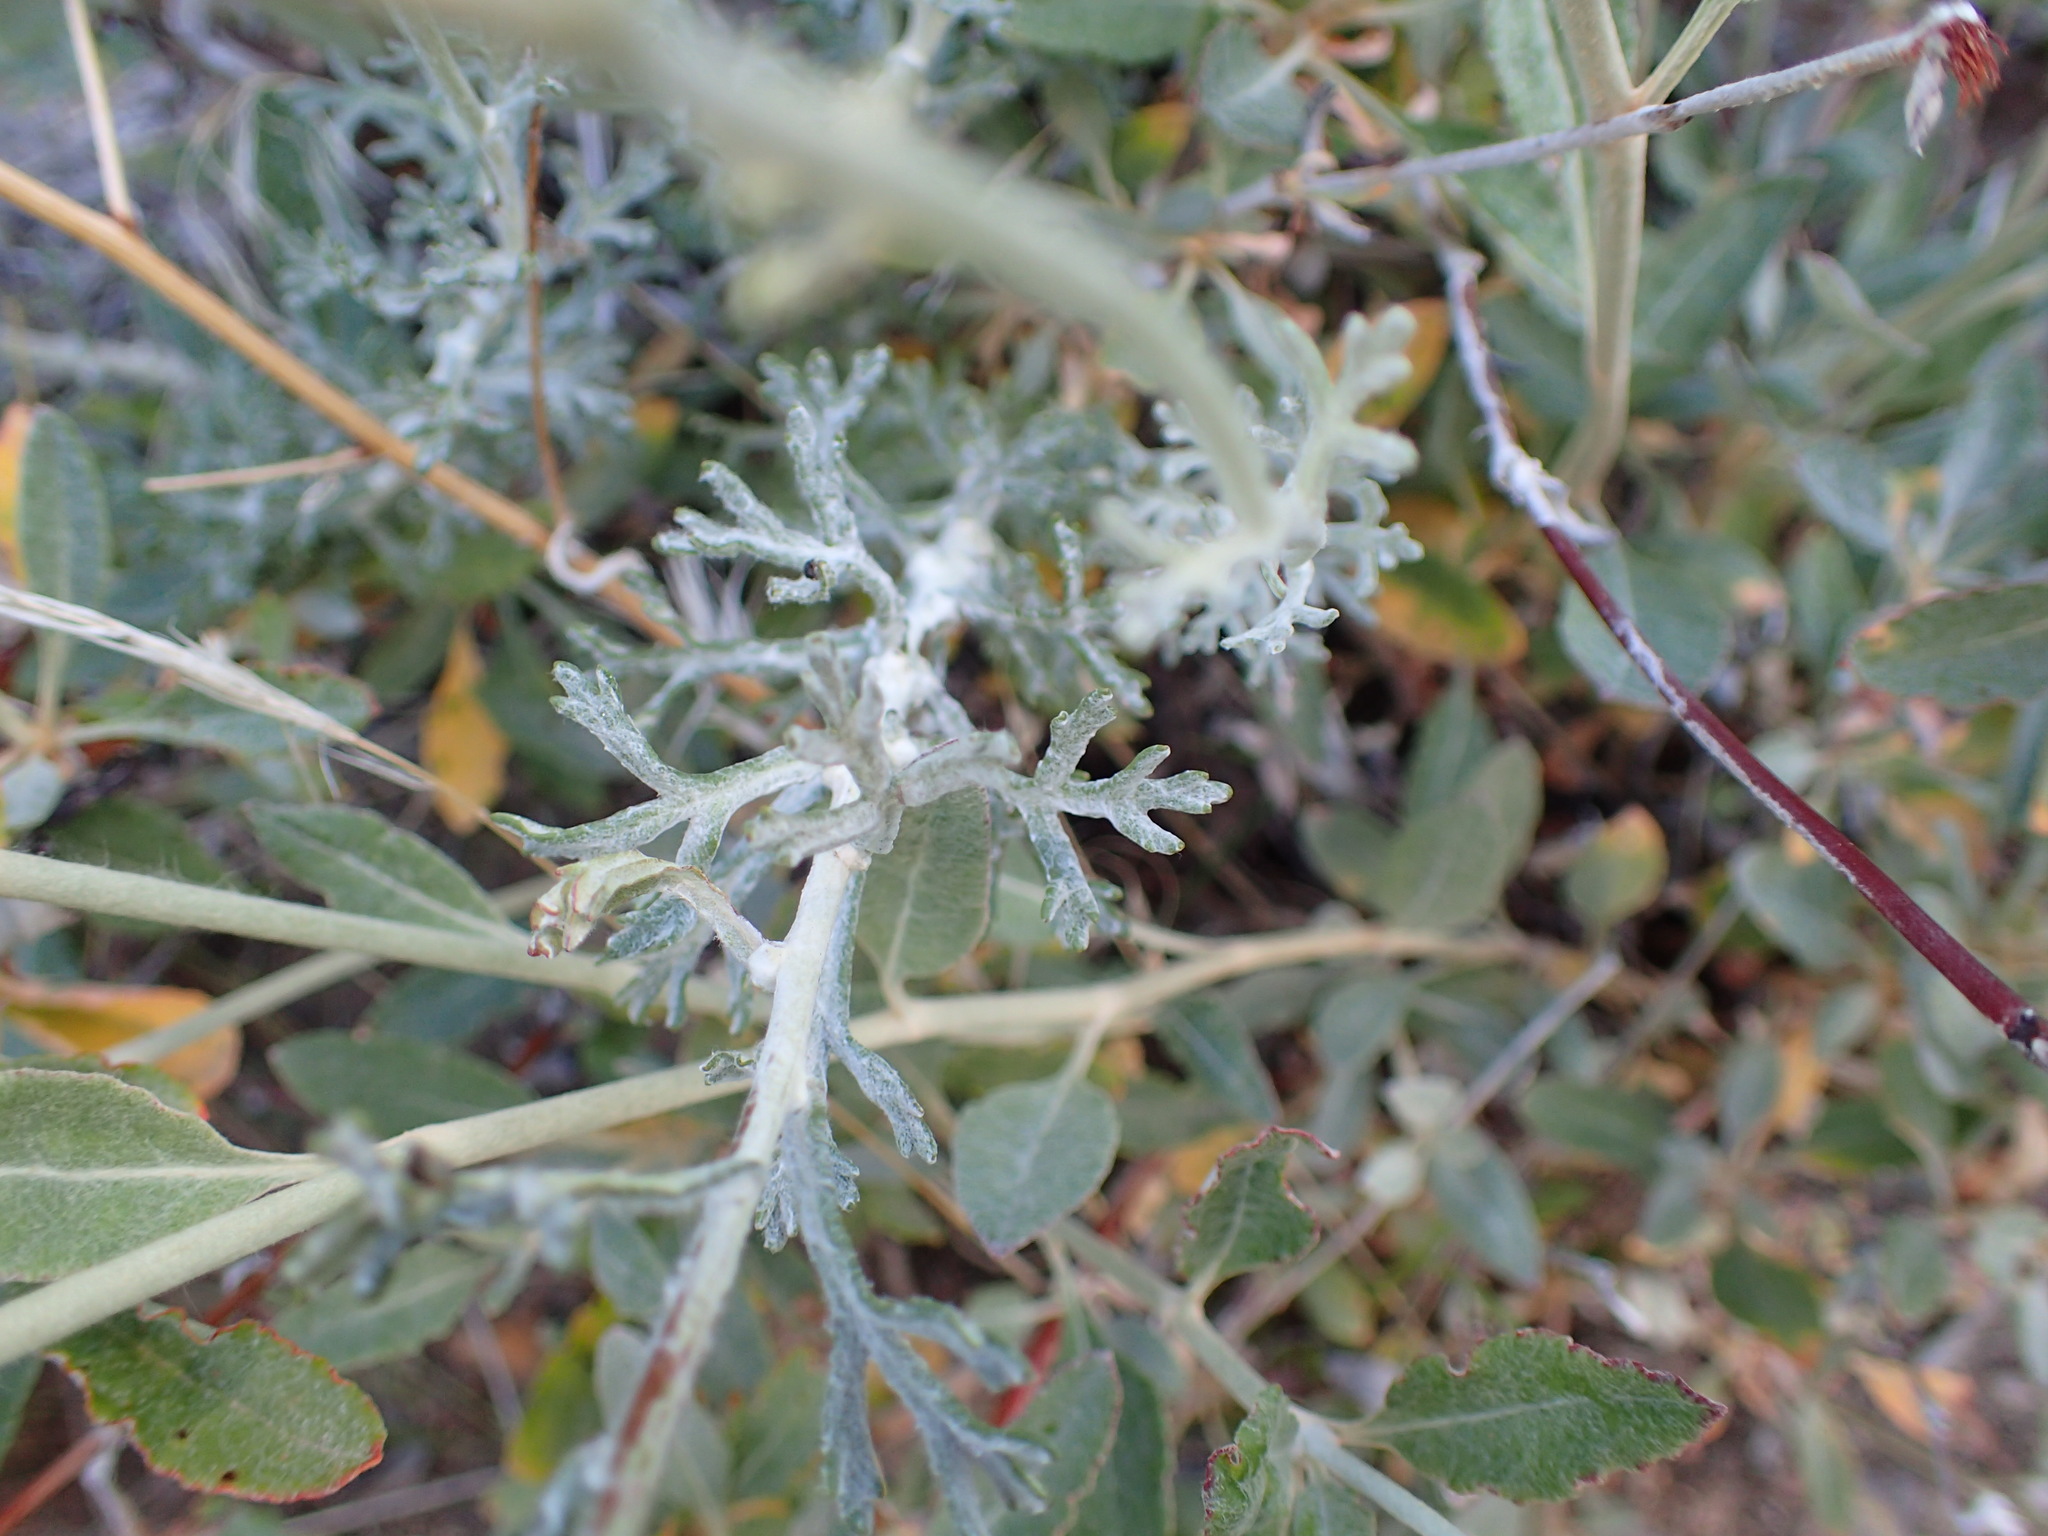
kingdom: Plantae
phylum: Tracheophyta
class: Magnoliopsida
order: Asterales
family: Asteraceae
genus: Eriophyllum
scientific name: Eriophyllum confertiflorum
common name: Golden-yarrow
